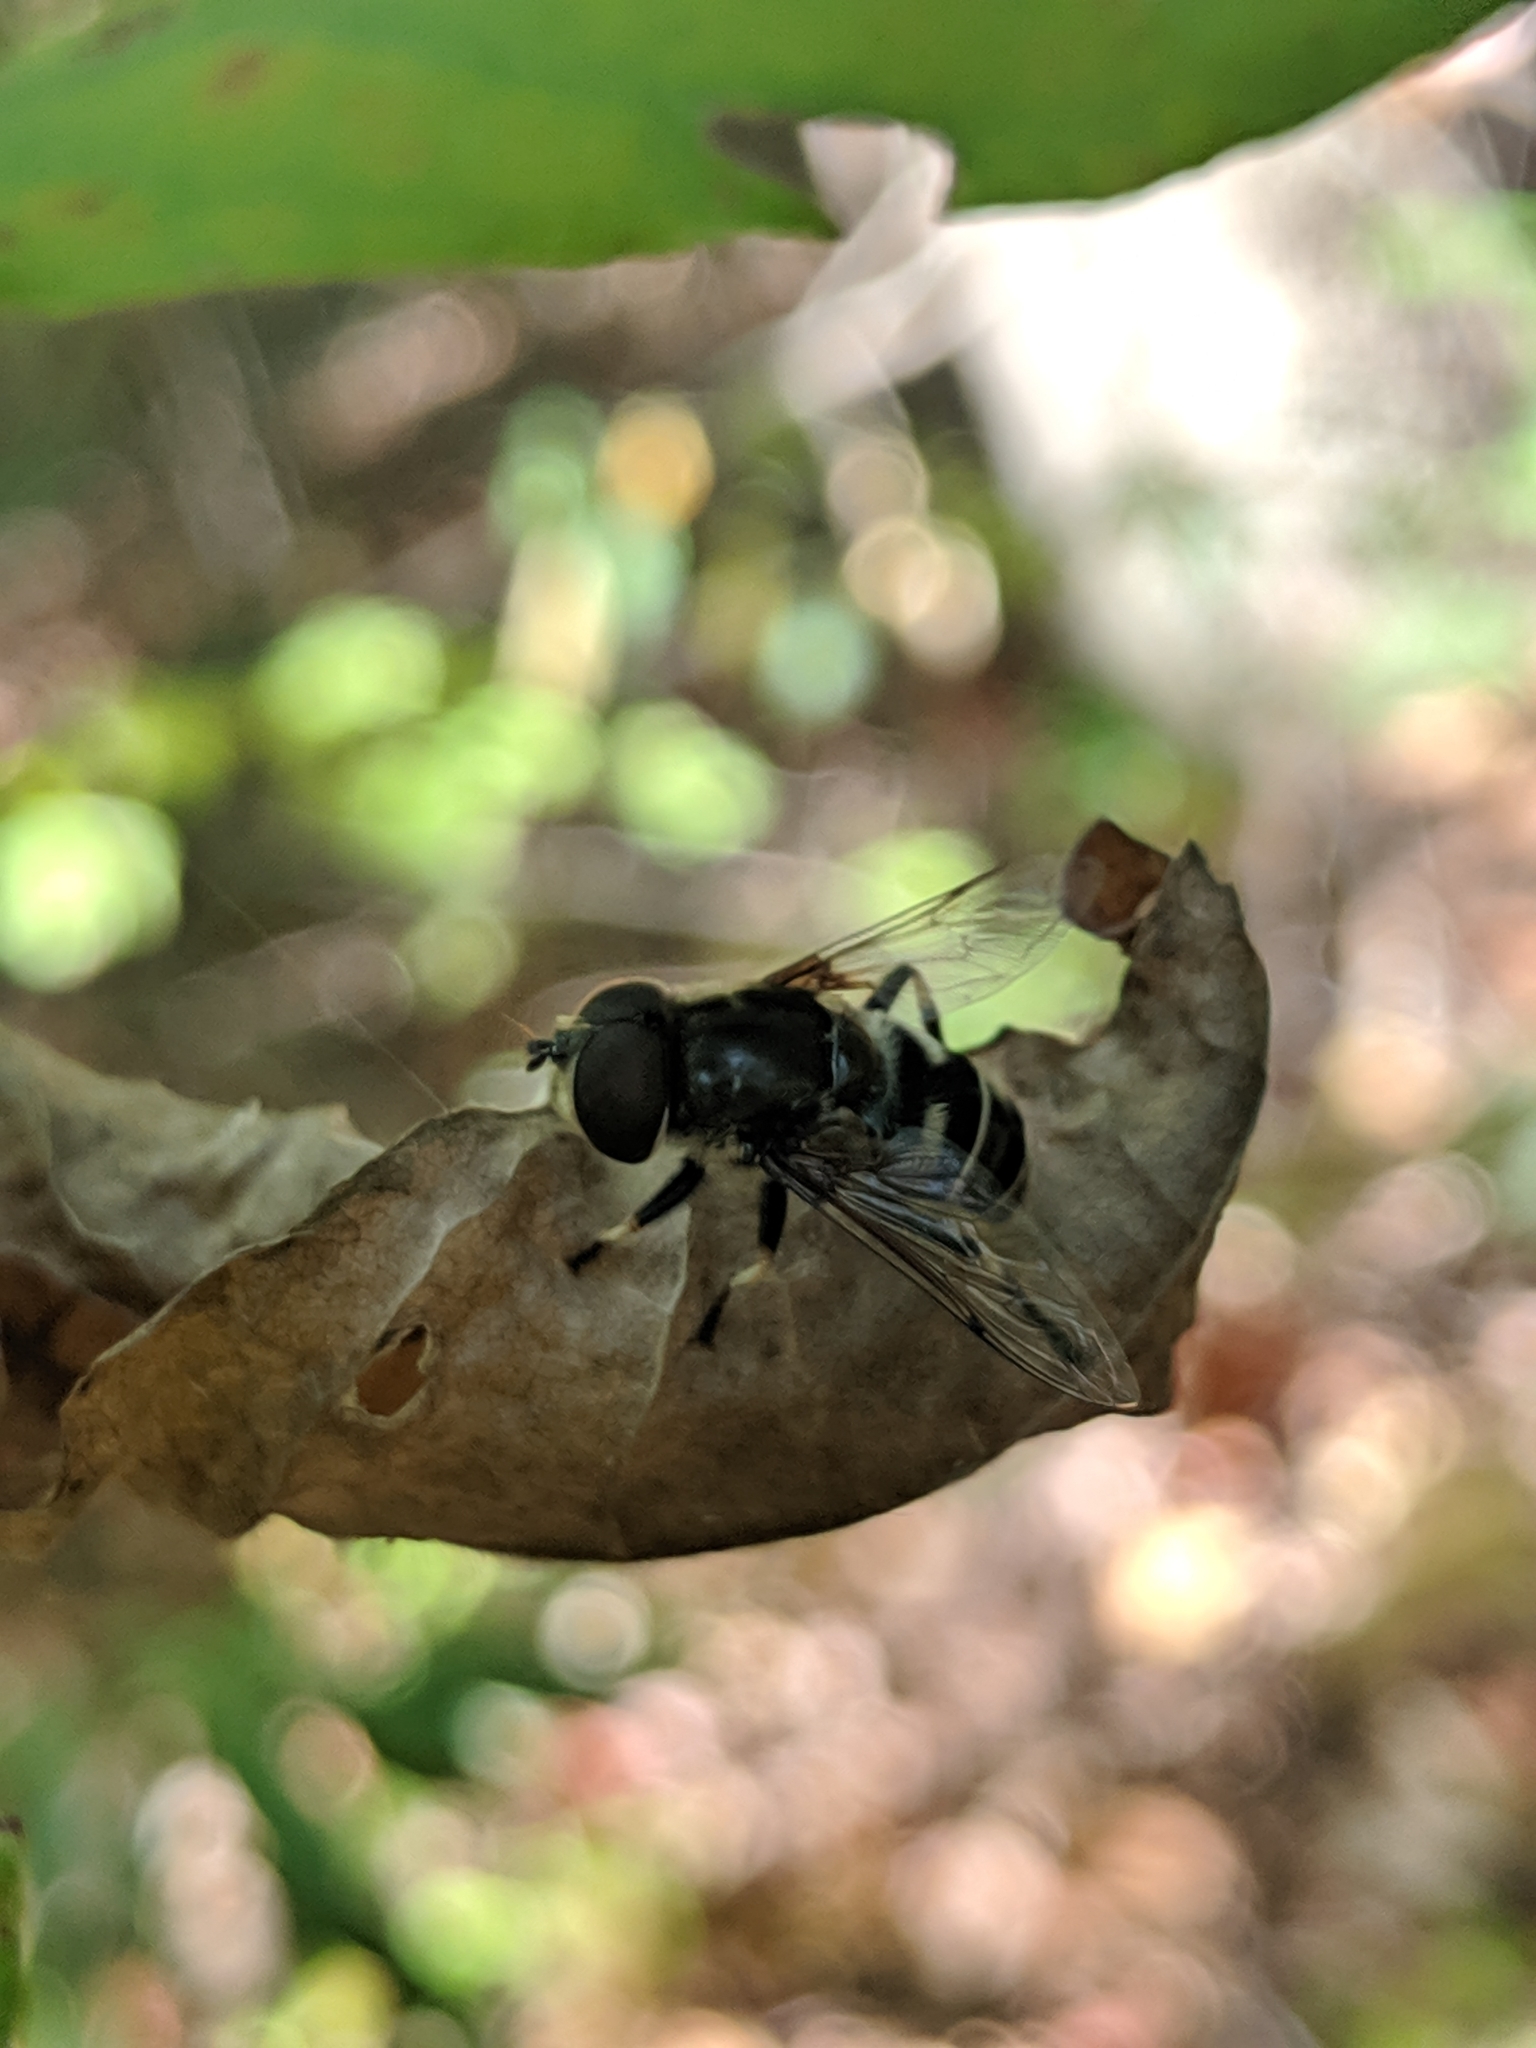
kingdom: Animalia
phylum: Arthropoda
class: Insecta
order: Diptera
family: Syrphidae
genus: Eristalis
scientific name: Eristalis dimidiata
